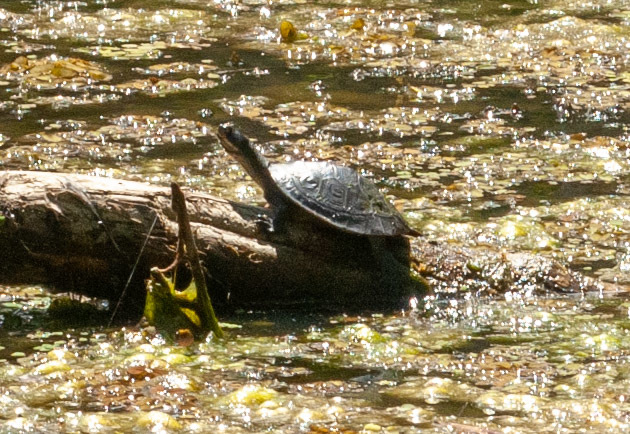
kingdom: Animalia
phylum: Chordata
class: Testudines
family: Chelidae
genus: Emydura
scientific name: Emydura macquarii
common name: Murray river turtle
